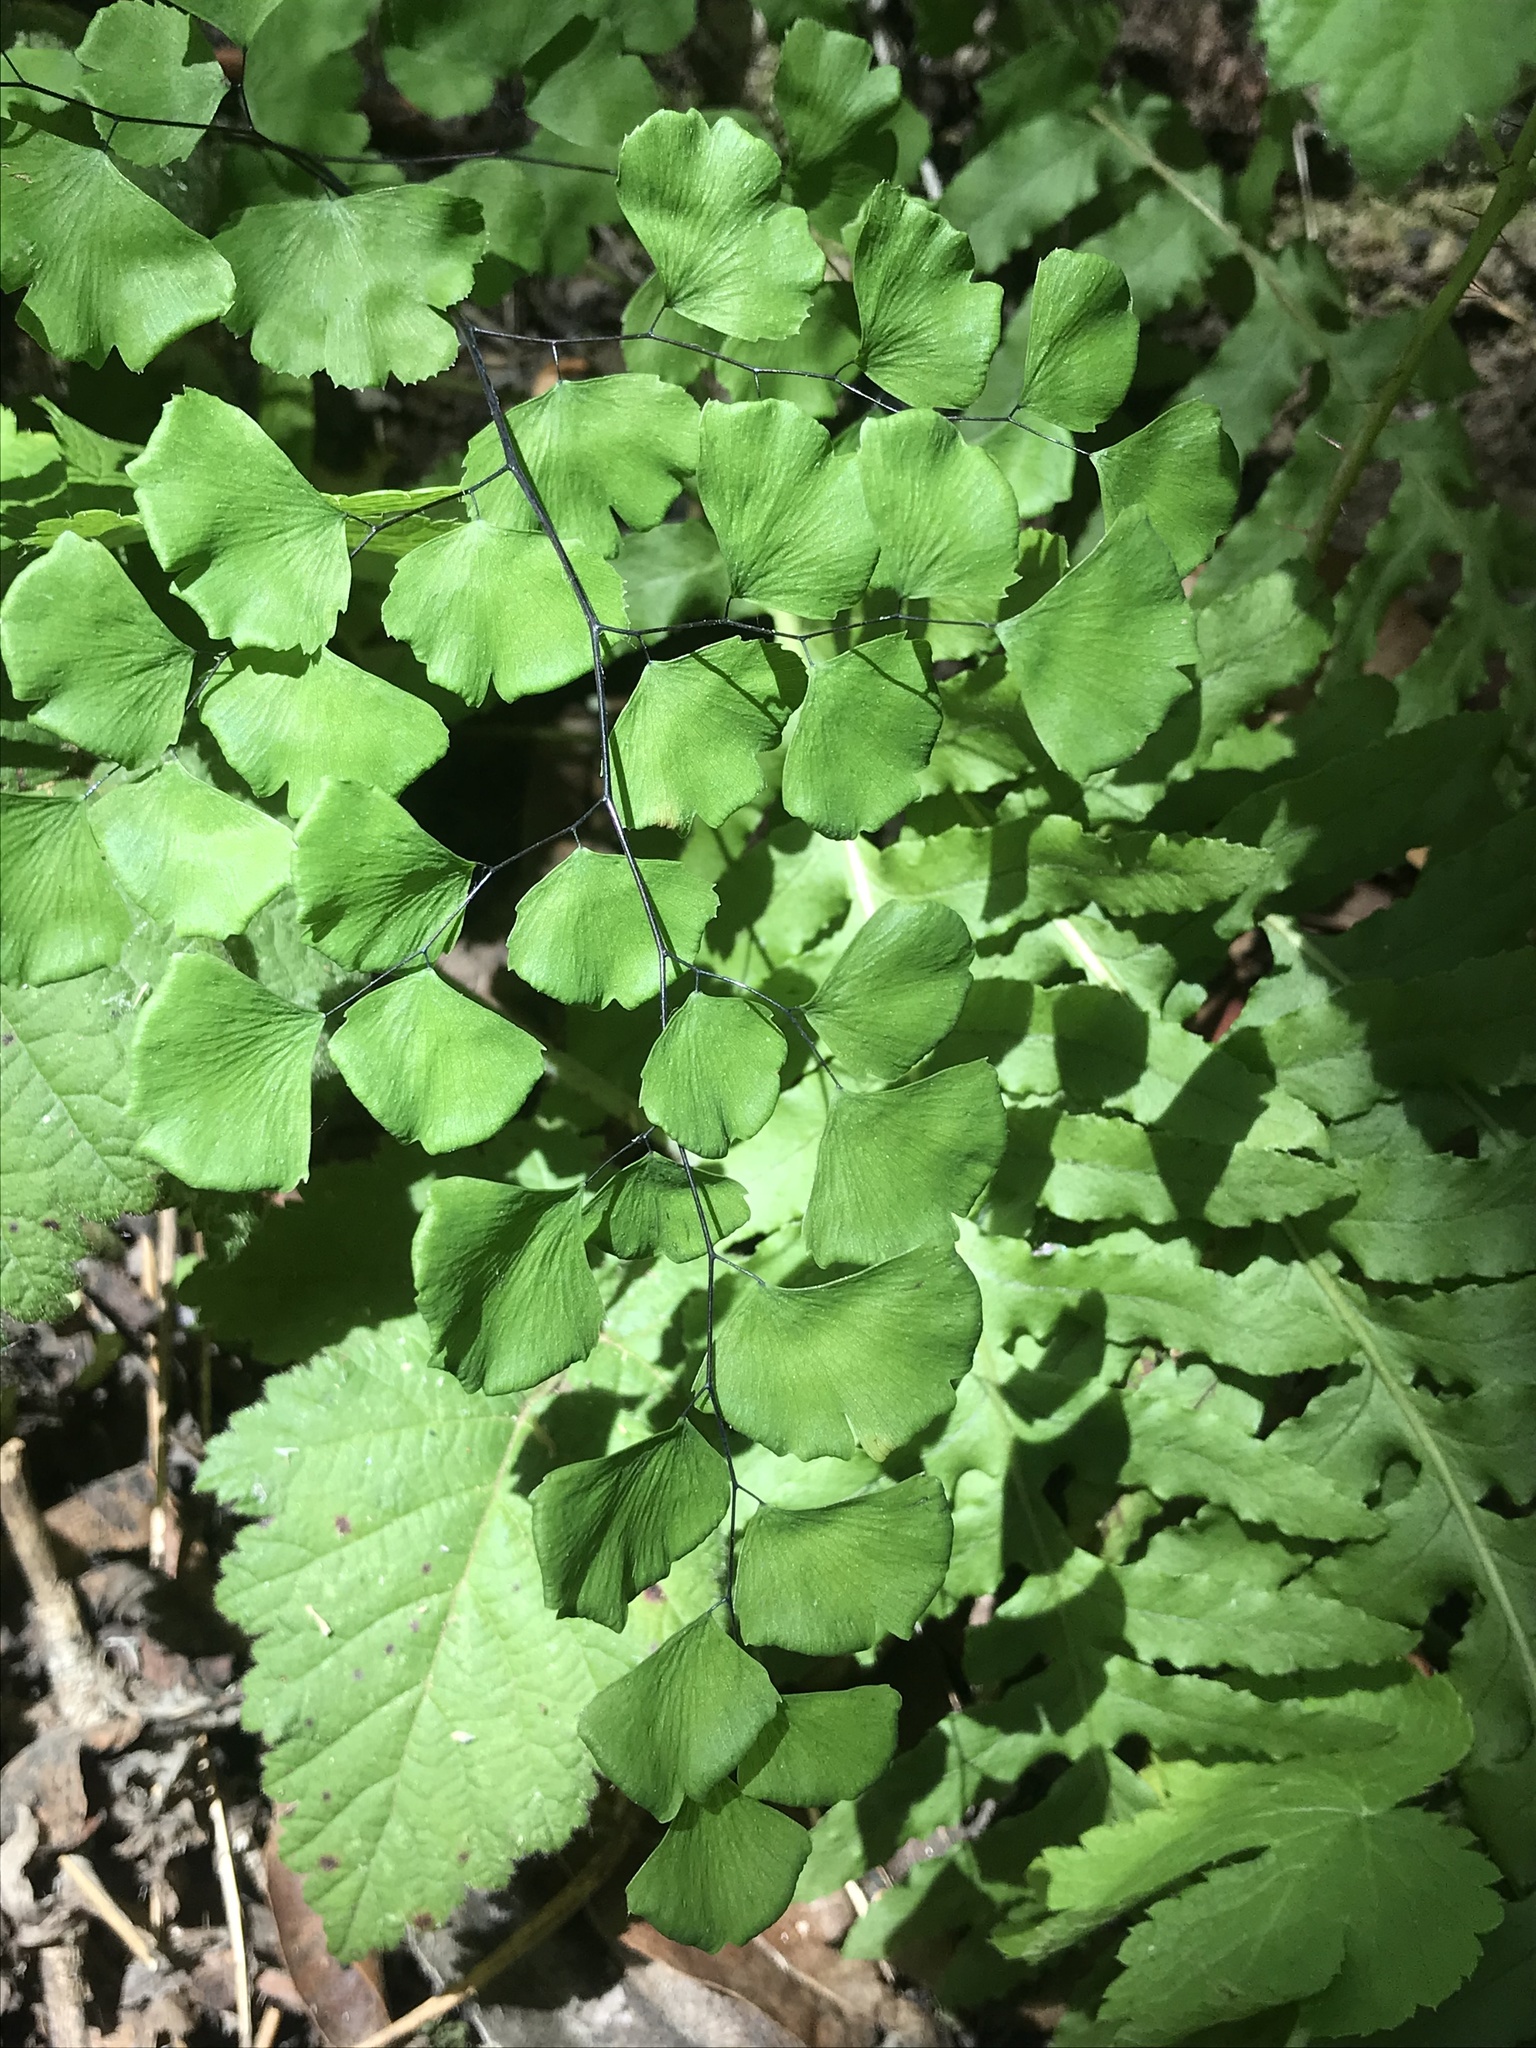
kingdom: Plantae
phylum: Tracheophyta
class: Polypodiopsida
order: Polypodiales
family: Pteridaceae
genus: Adiantum
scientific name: Adiantum jordanii
